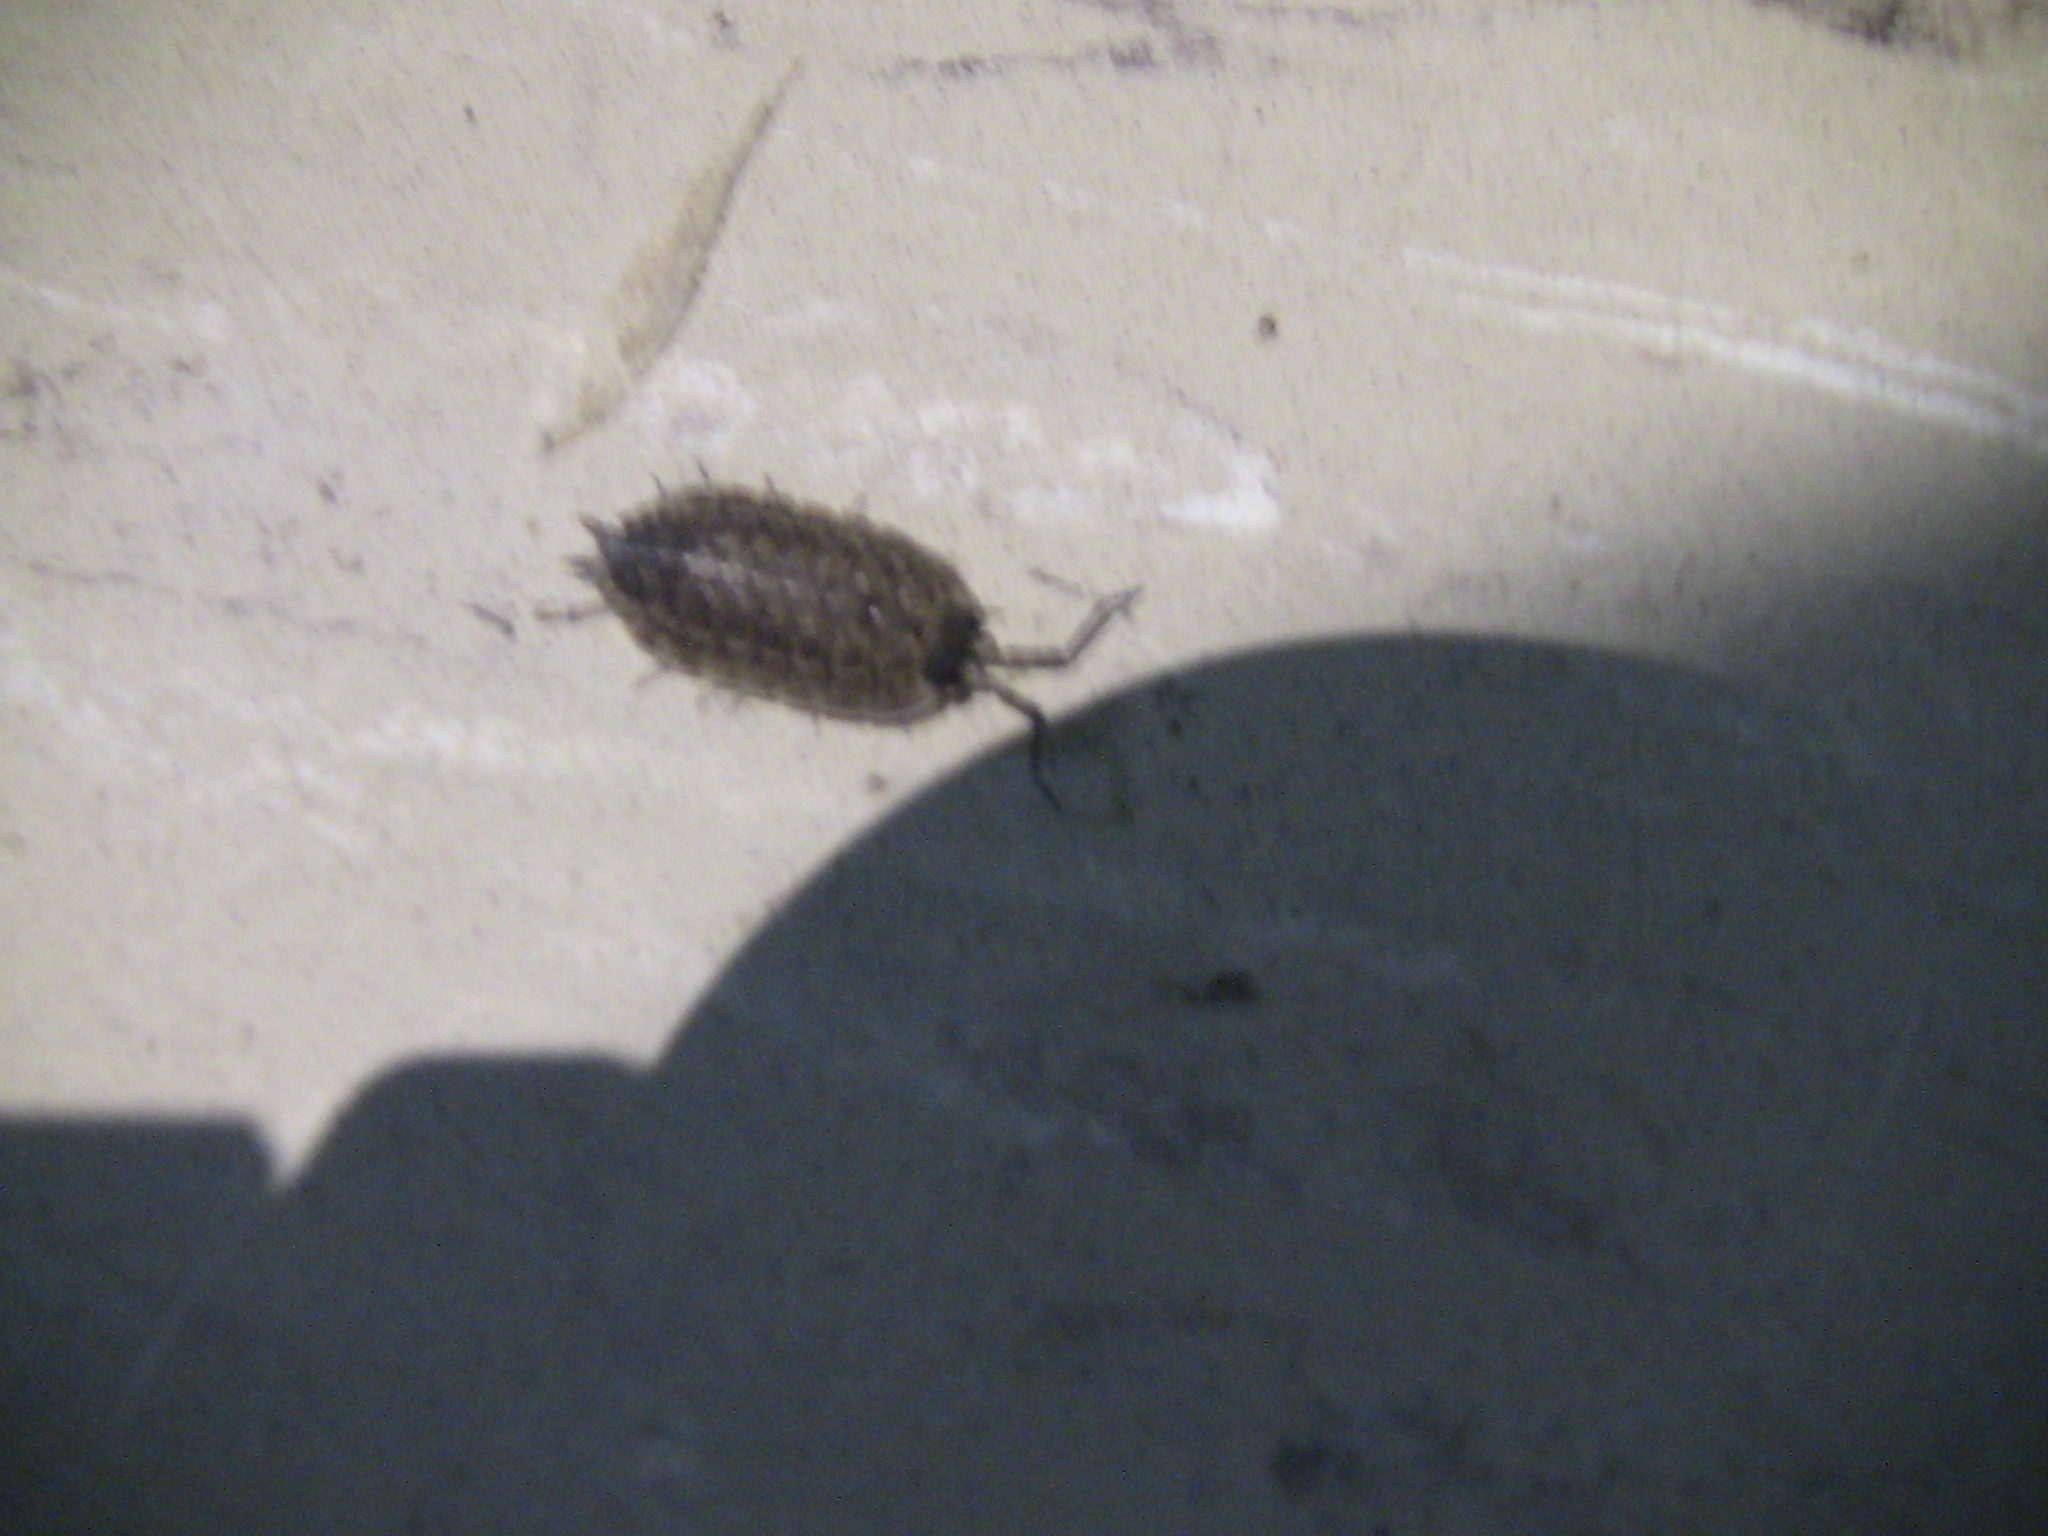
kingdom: Animalia
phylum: Arthropoda
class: Malacostraca
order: Isopoda
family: Porcellionidae
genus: Porcellio
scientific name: Porcellio spinicornis
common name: Painted woodlouse
